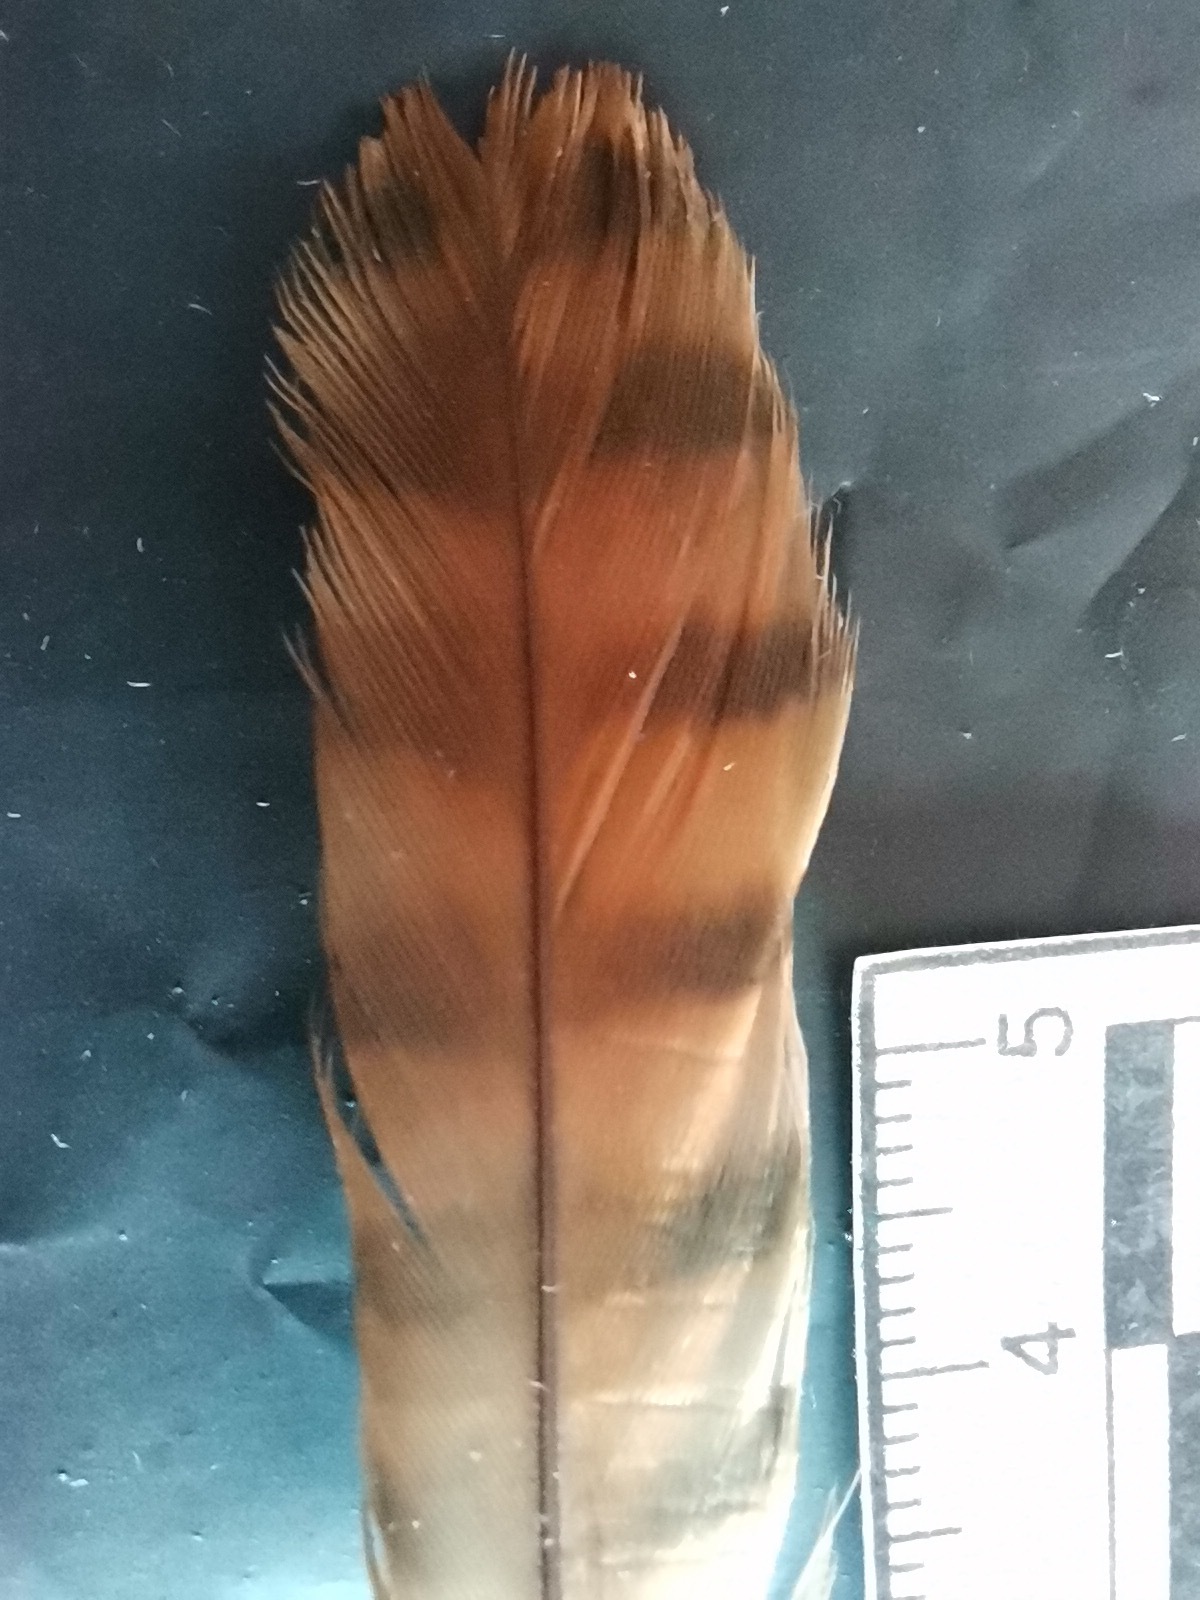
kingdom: Animalia
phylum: Chordata
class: Aves
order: Strigiformes
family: Strigidae
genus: Glaucidium
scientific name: Glaucidium brasilianum
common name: Ferruginous pygmy-owl
